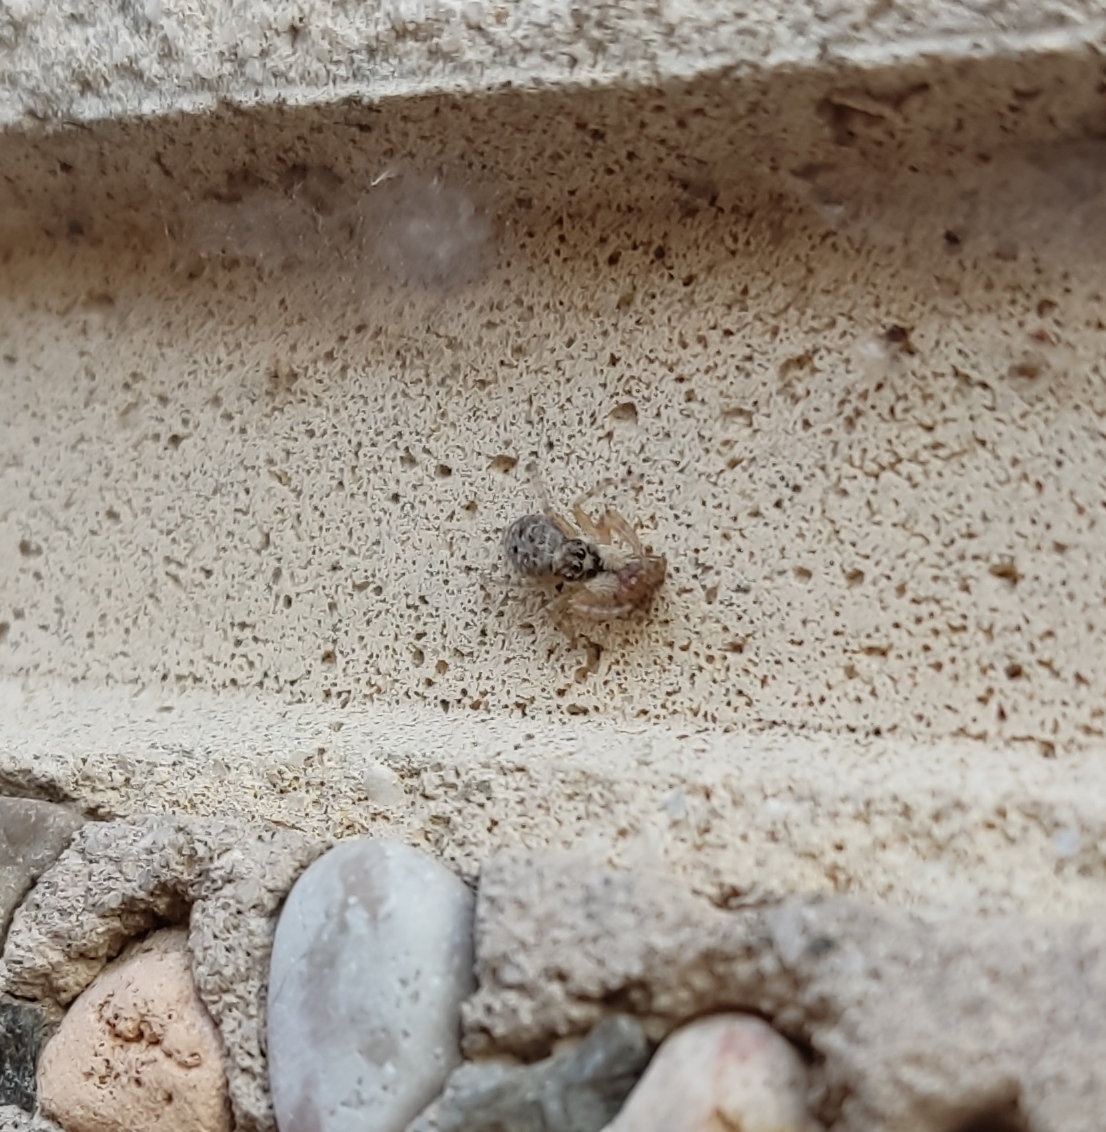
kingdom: Animalia
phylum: Arthropoda
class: Arachnida
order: Araneae
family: Salticidae
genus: Menemerus
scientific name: Menemerus semilimbatus
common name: Jumping spider
